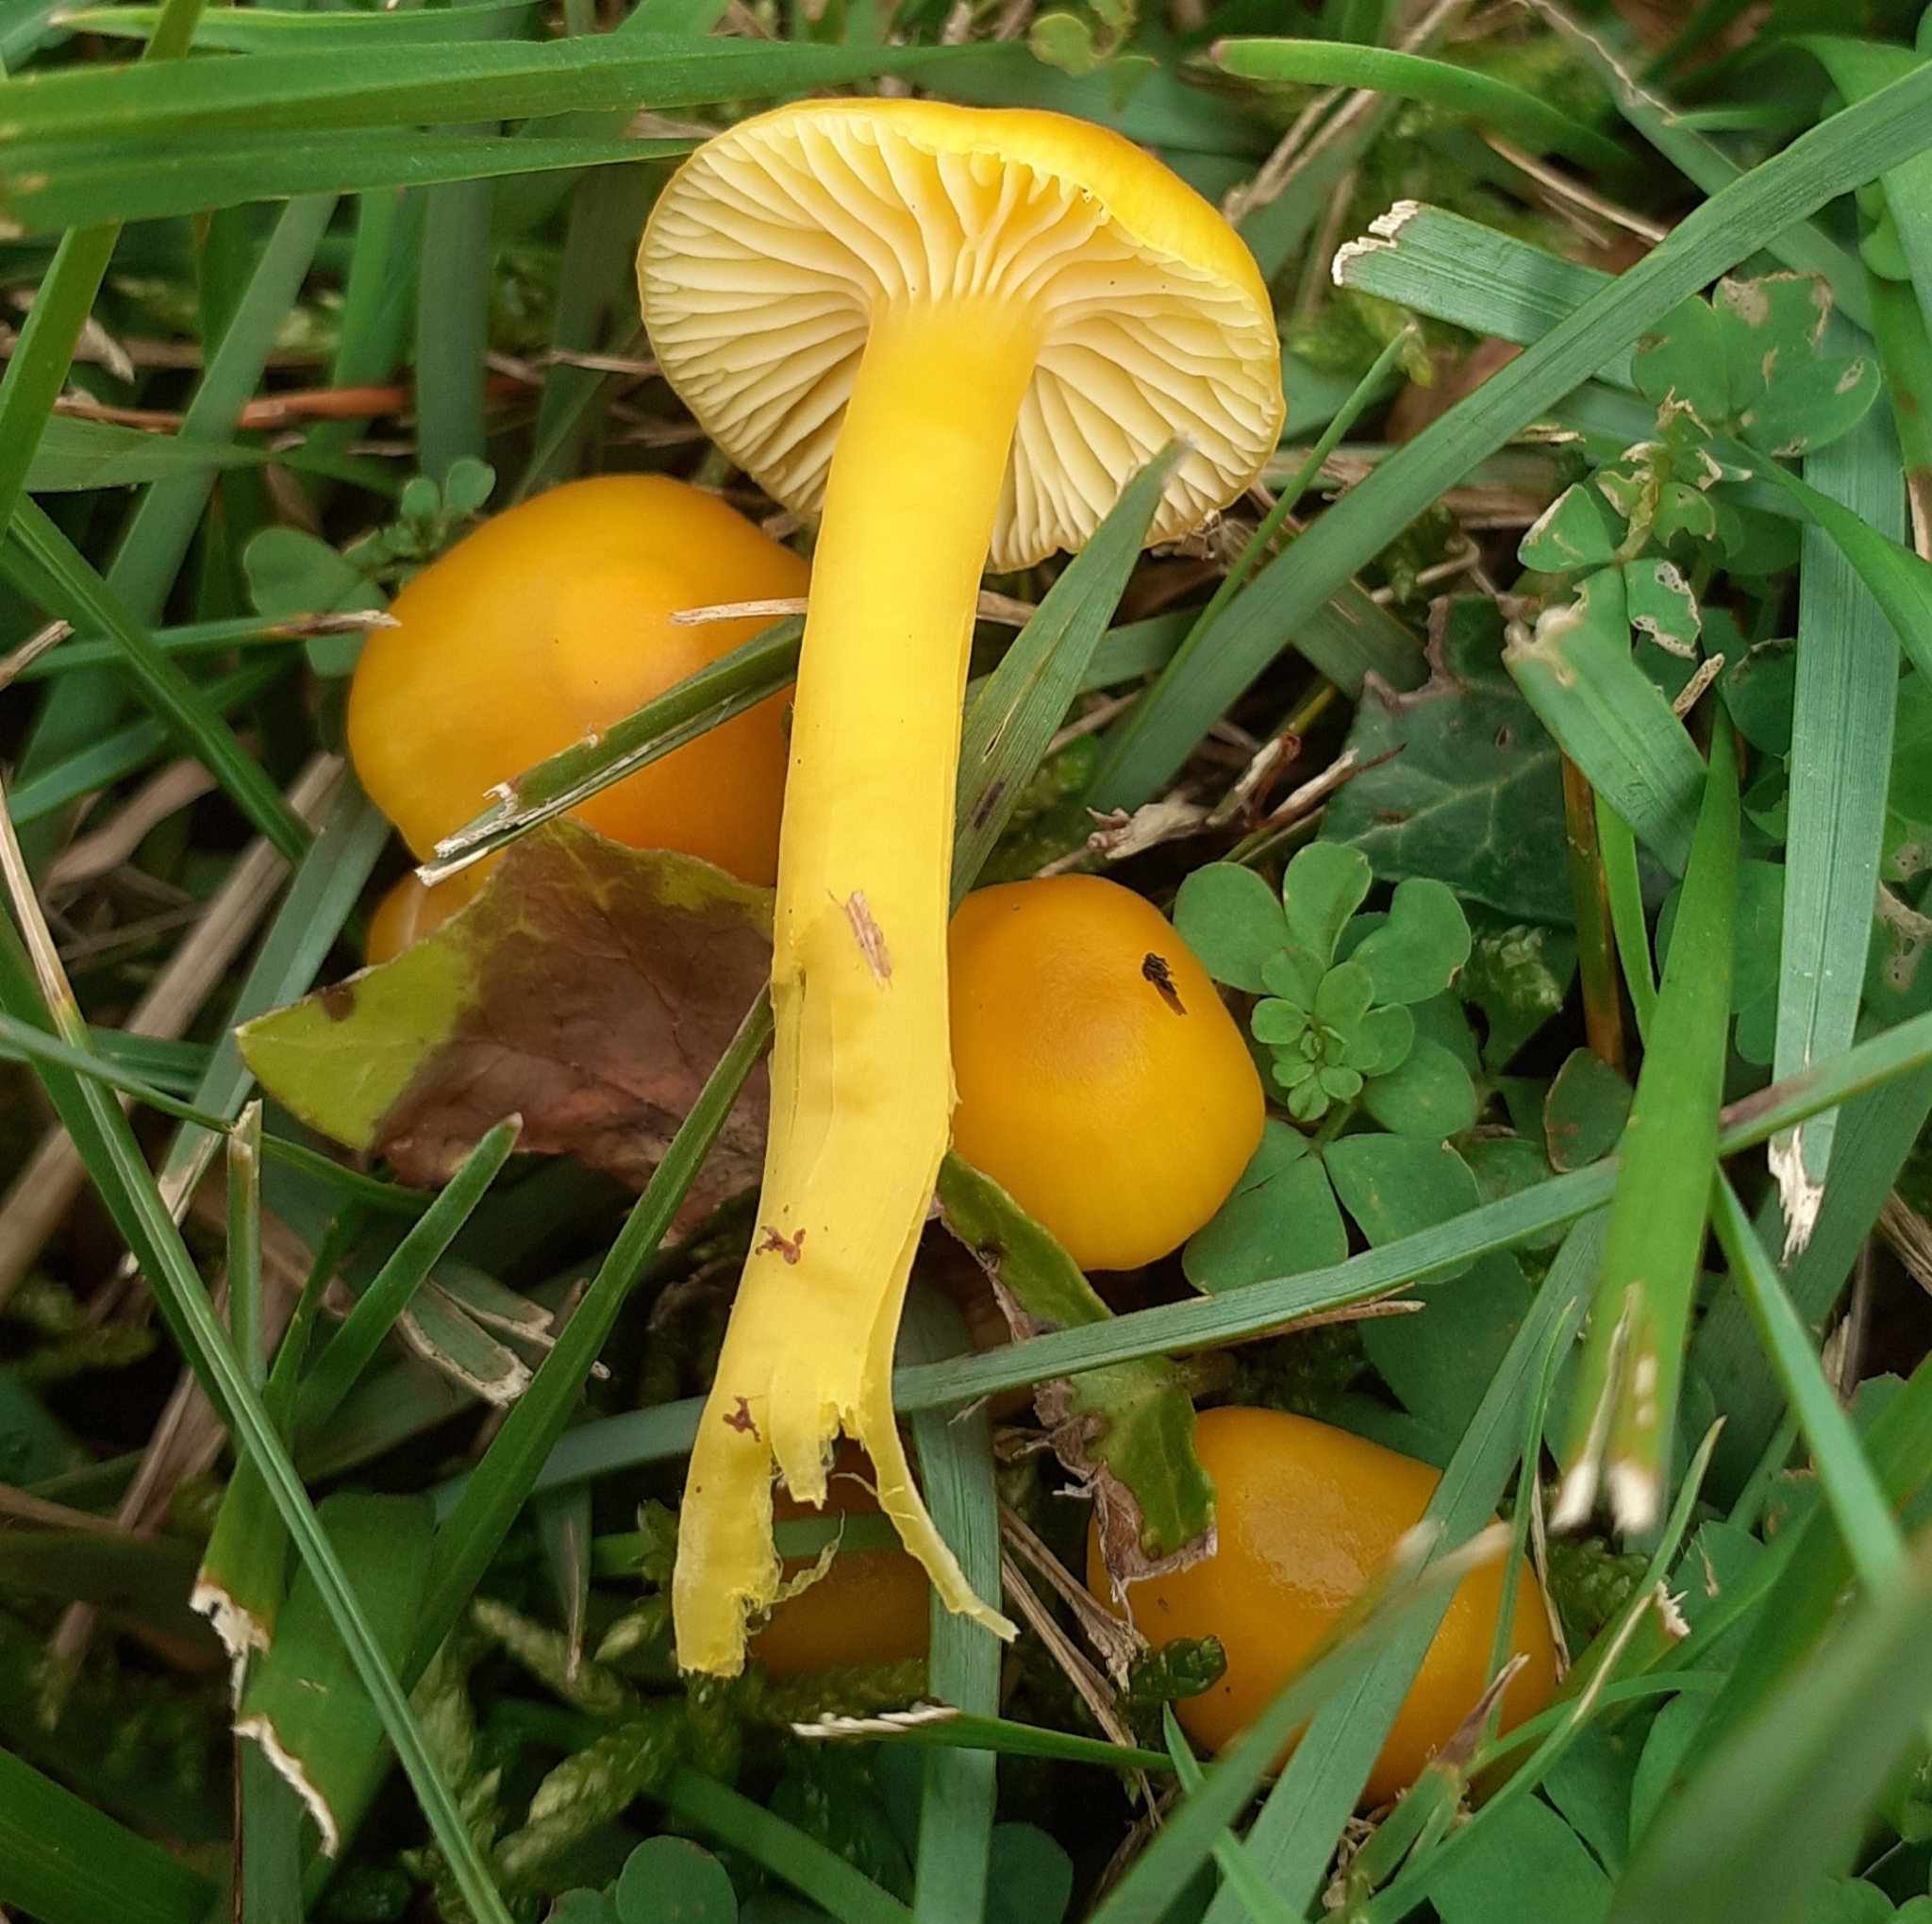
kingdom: Fungi
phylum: Basidiomycota
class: Agaricomycetes
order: Agaricales
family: Hygrophoraceae
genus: Hygrocybe
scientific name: Hygrocybe ceracea
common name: Butter waxcap
